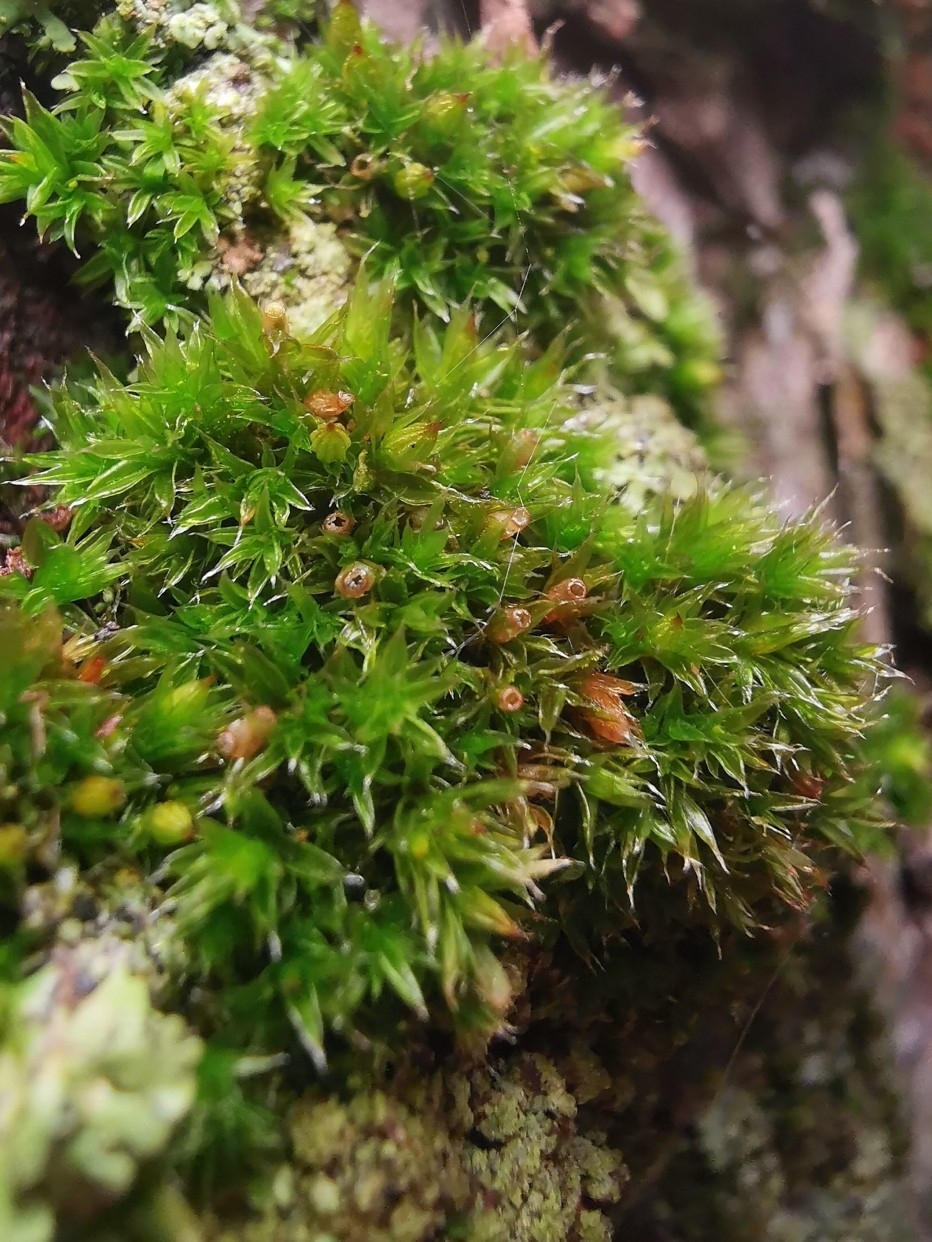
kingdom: Plantae
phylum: Bryophyta
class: Bryopsida
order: Orthotrichales
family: Orthotrichaceae
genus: Orthotrichum
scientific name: Orthotrichum diaphanum
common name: White-tipped bristle-moss
